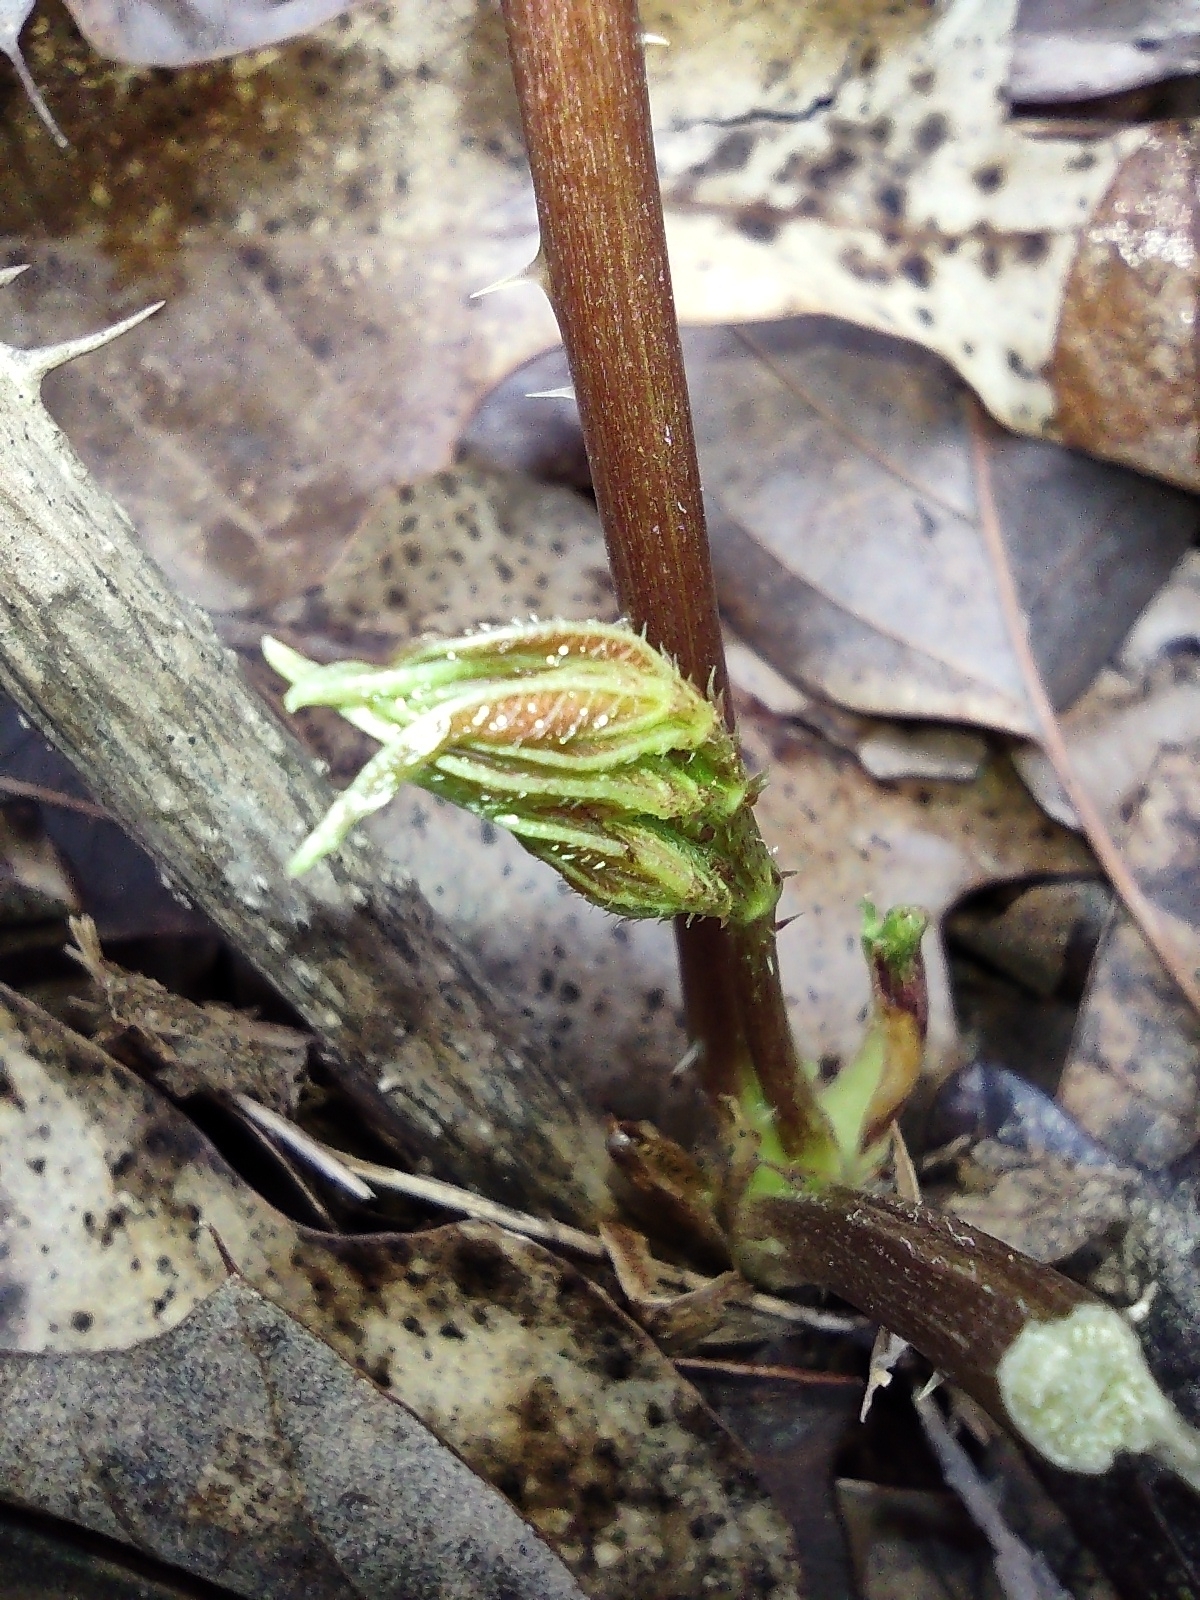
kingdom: Plantae
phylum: Tracheophyta
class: Magnoliopsida
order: Apiales
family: Araliaceae
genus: Aralia
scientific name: Aralia spinosa
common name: Hercules'-club
